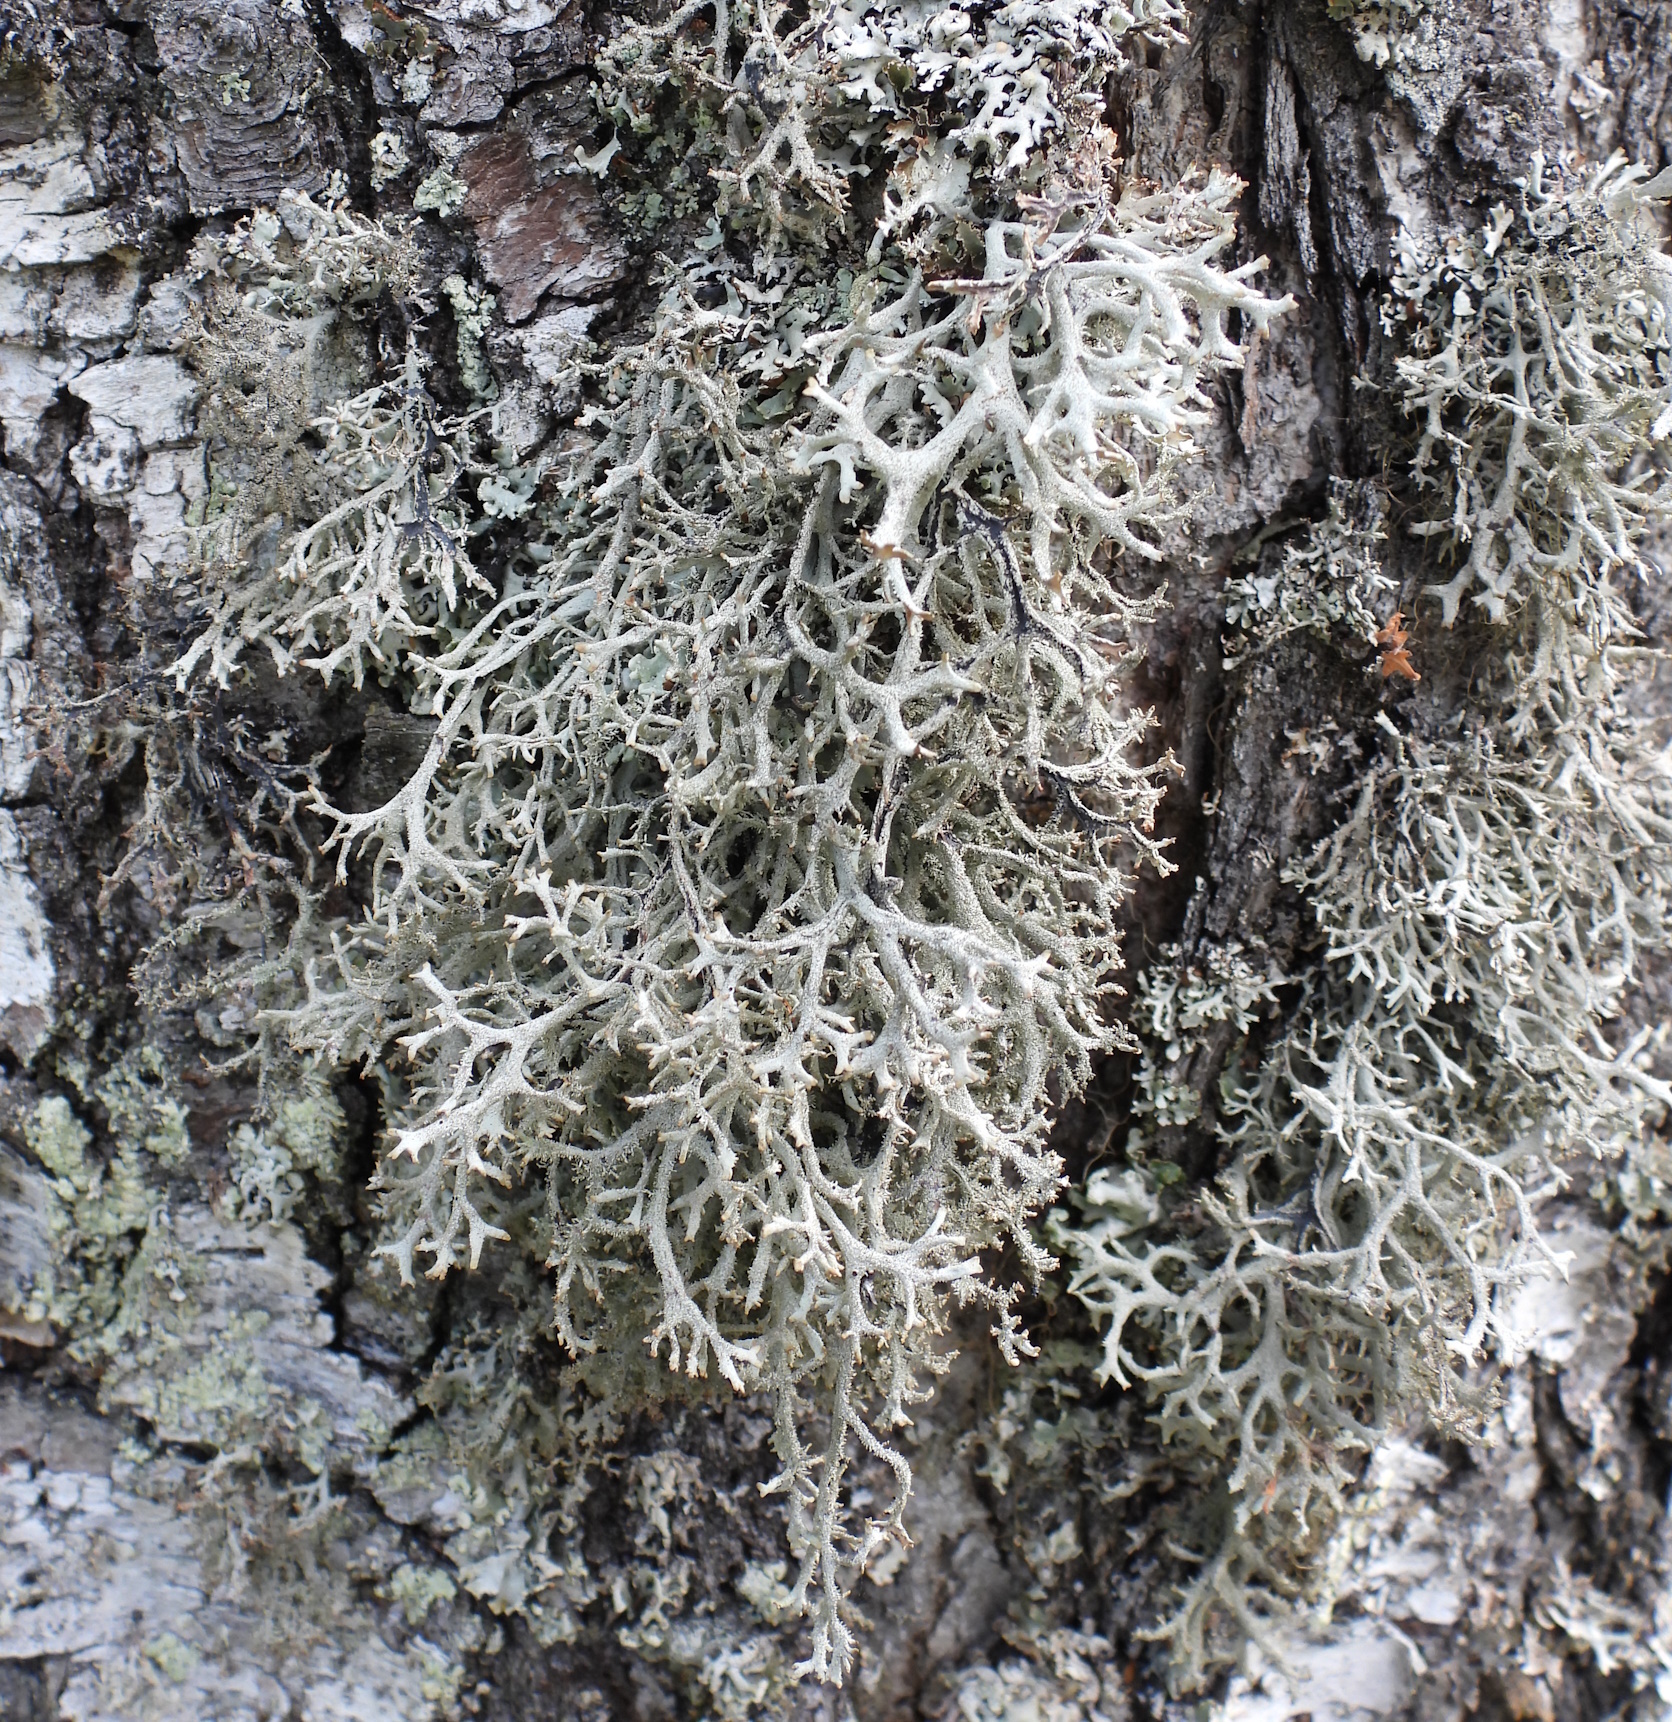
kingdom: Fungi
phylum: Ascomycota
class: Lecanoromycetes
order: Lecanorales
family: Parmeliaceae
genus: Pseudevernia
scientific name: Pseudevernia furfuracea
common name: Tree moss
